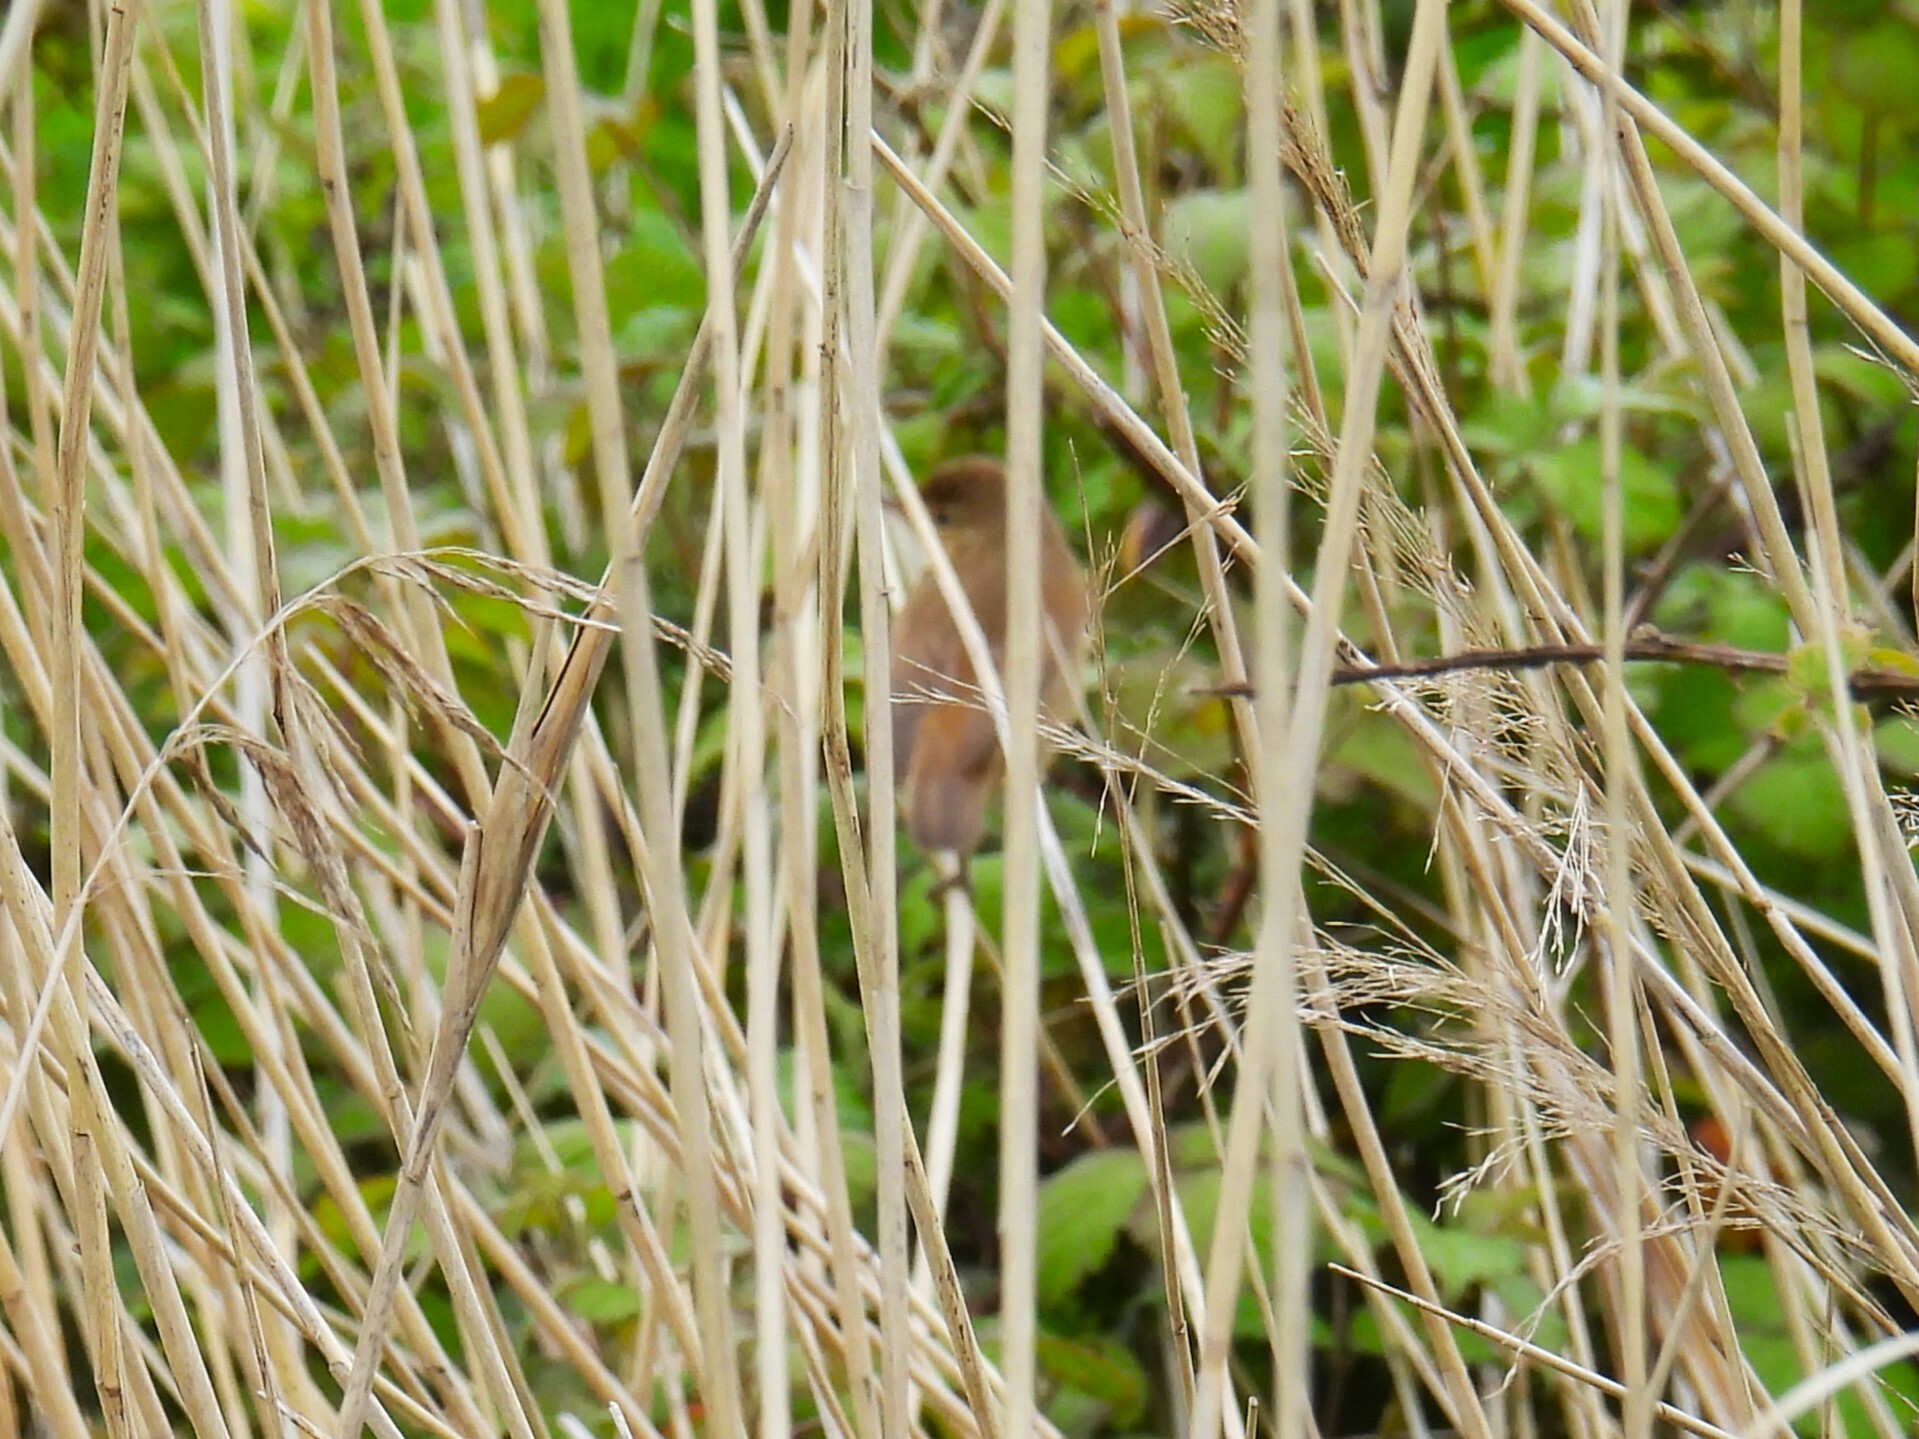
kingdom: Animalia
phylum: Chordata
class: Aves
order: Passeriformes
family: Cettiidae
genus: Cettia
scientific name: Cettia cetti
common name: Cetti's warbler
